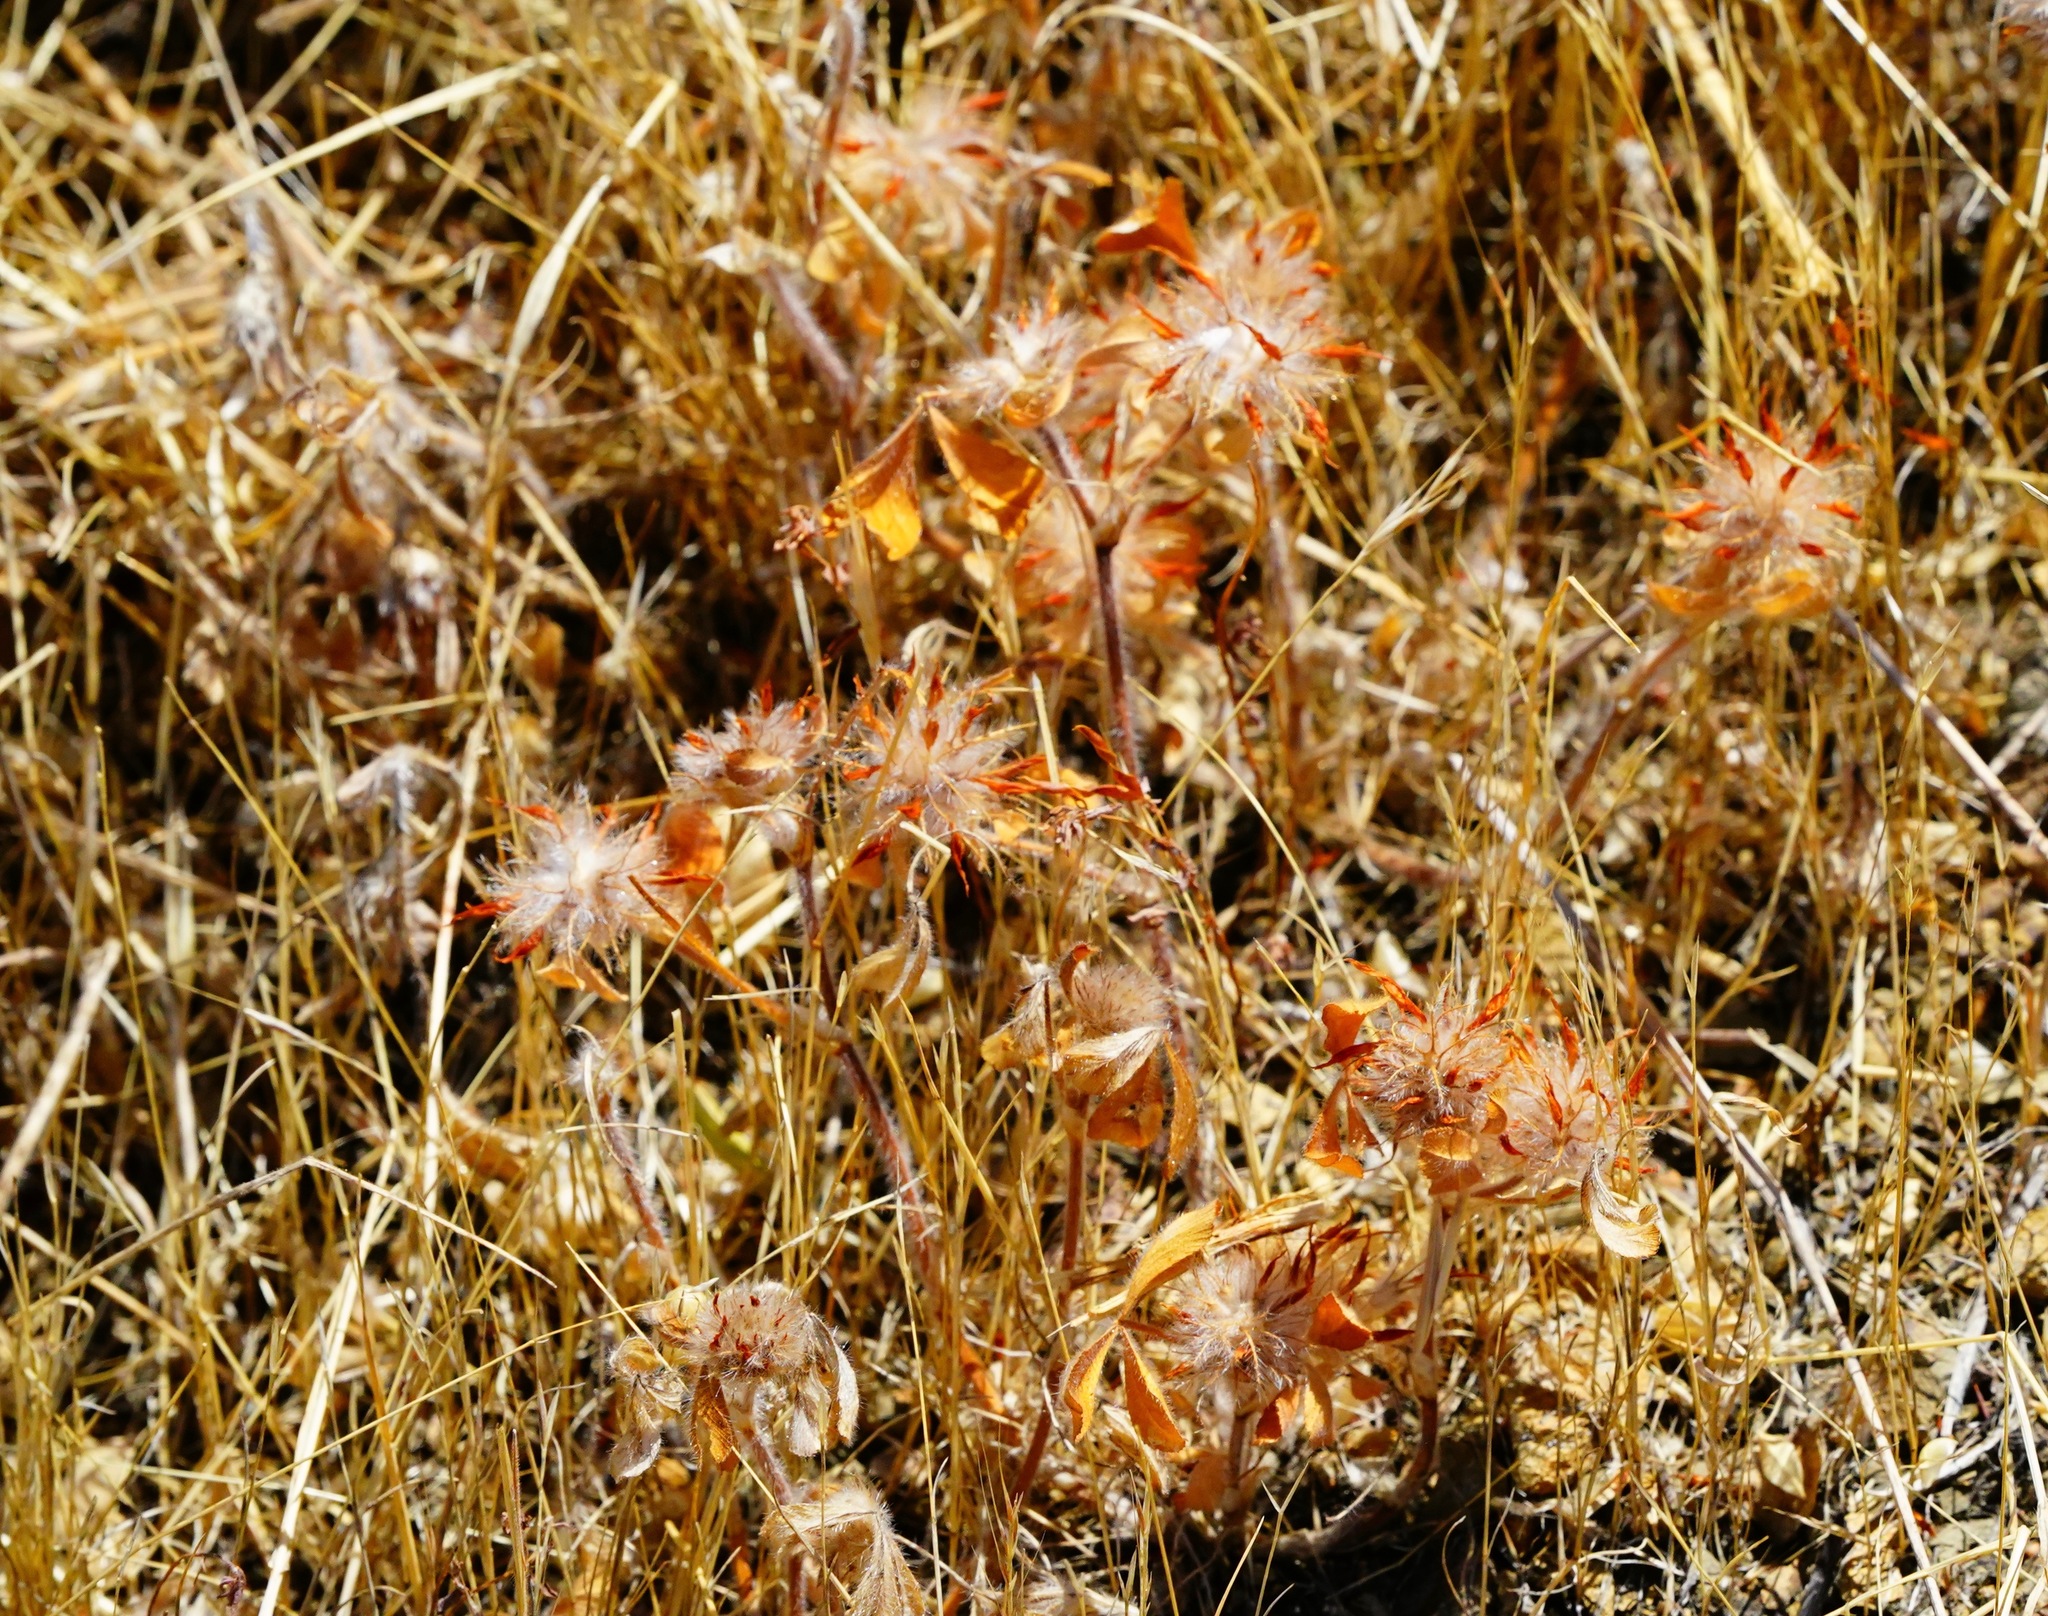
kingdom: Plantae
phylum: Tracheophyta
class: Magnoliopsida
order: Fabales
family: Fabaceae
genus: Trifolium
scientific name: Trifolium hirtum
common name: Rose clover
